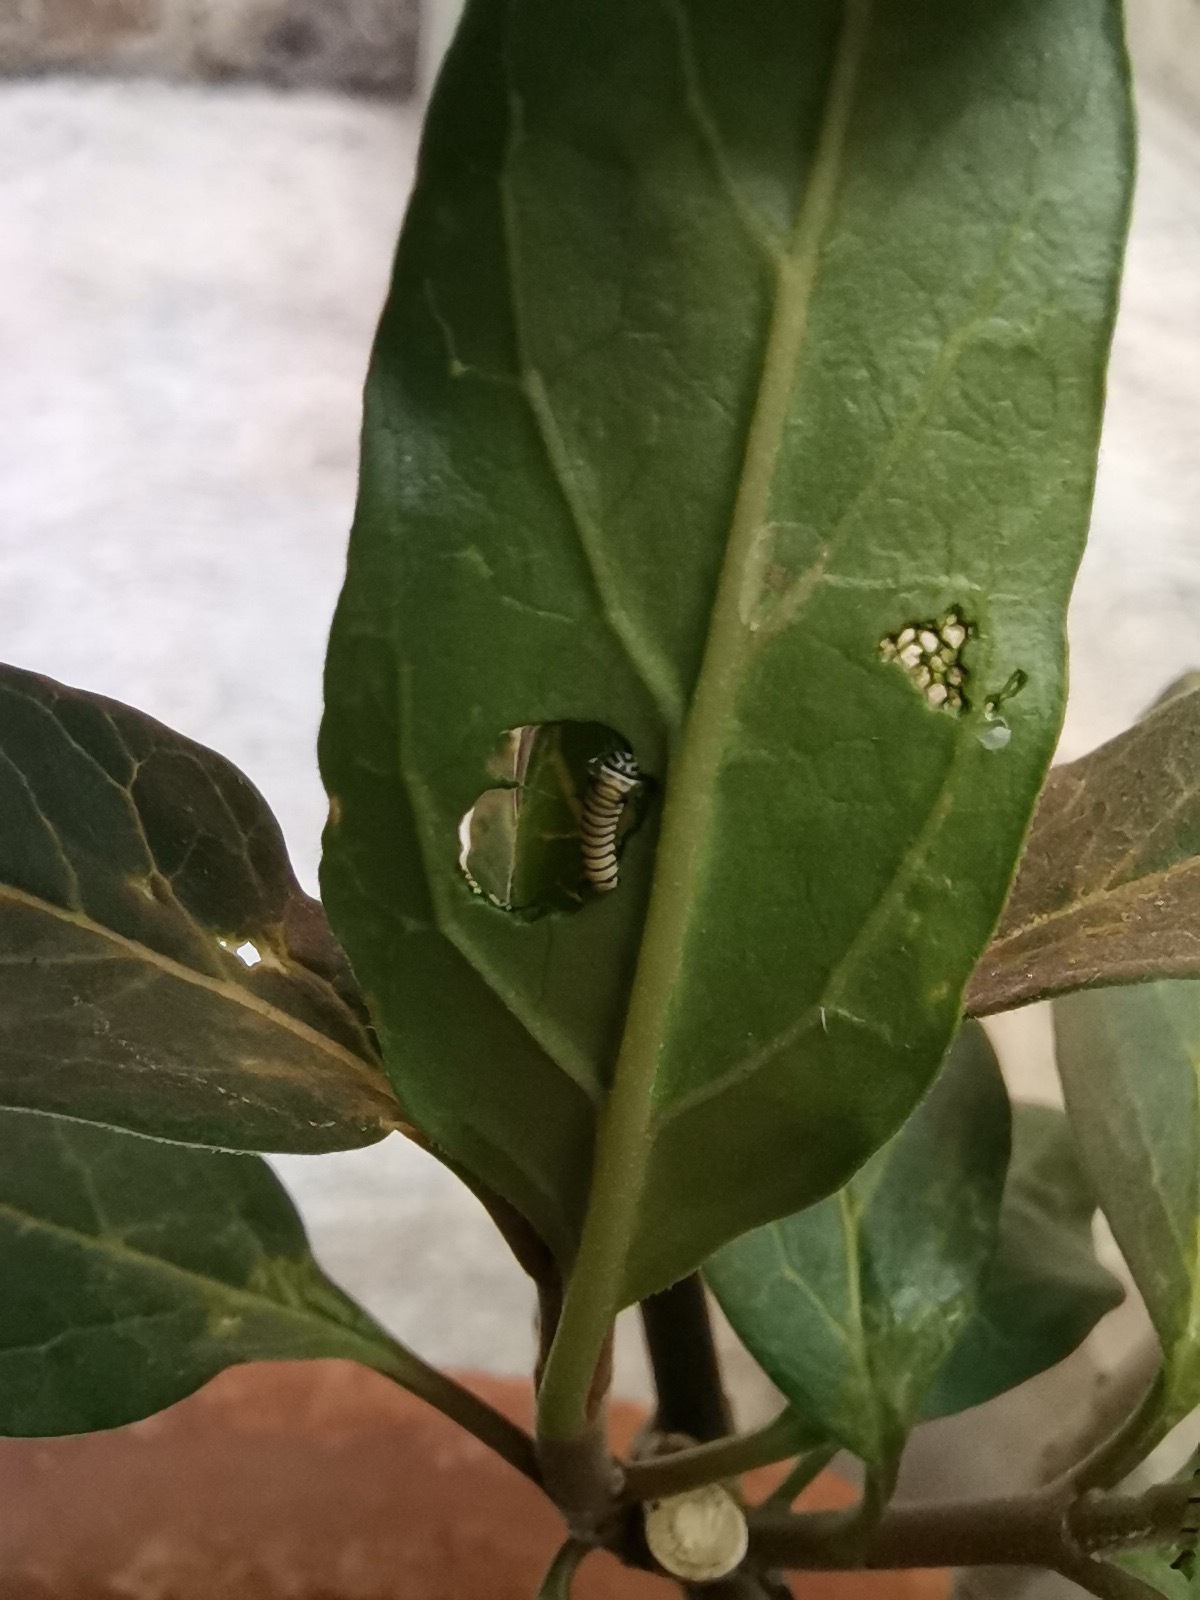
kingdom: Animalia
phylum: Arthropoda
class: Insecta
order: Lepidoptera
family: Nymphalidae
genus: Danaus
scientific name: Danaus plexippus
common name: Monarch
